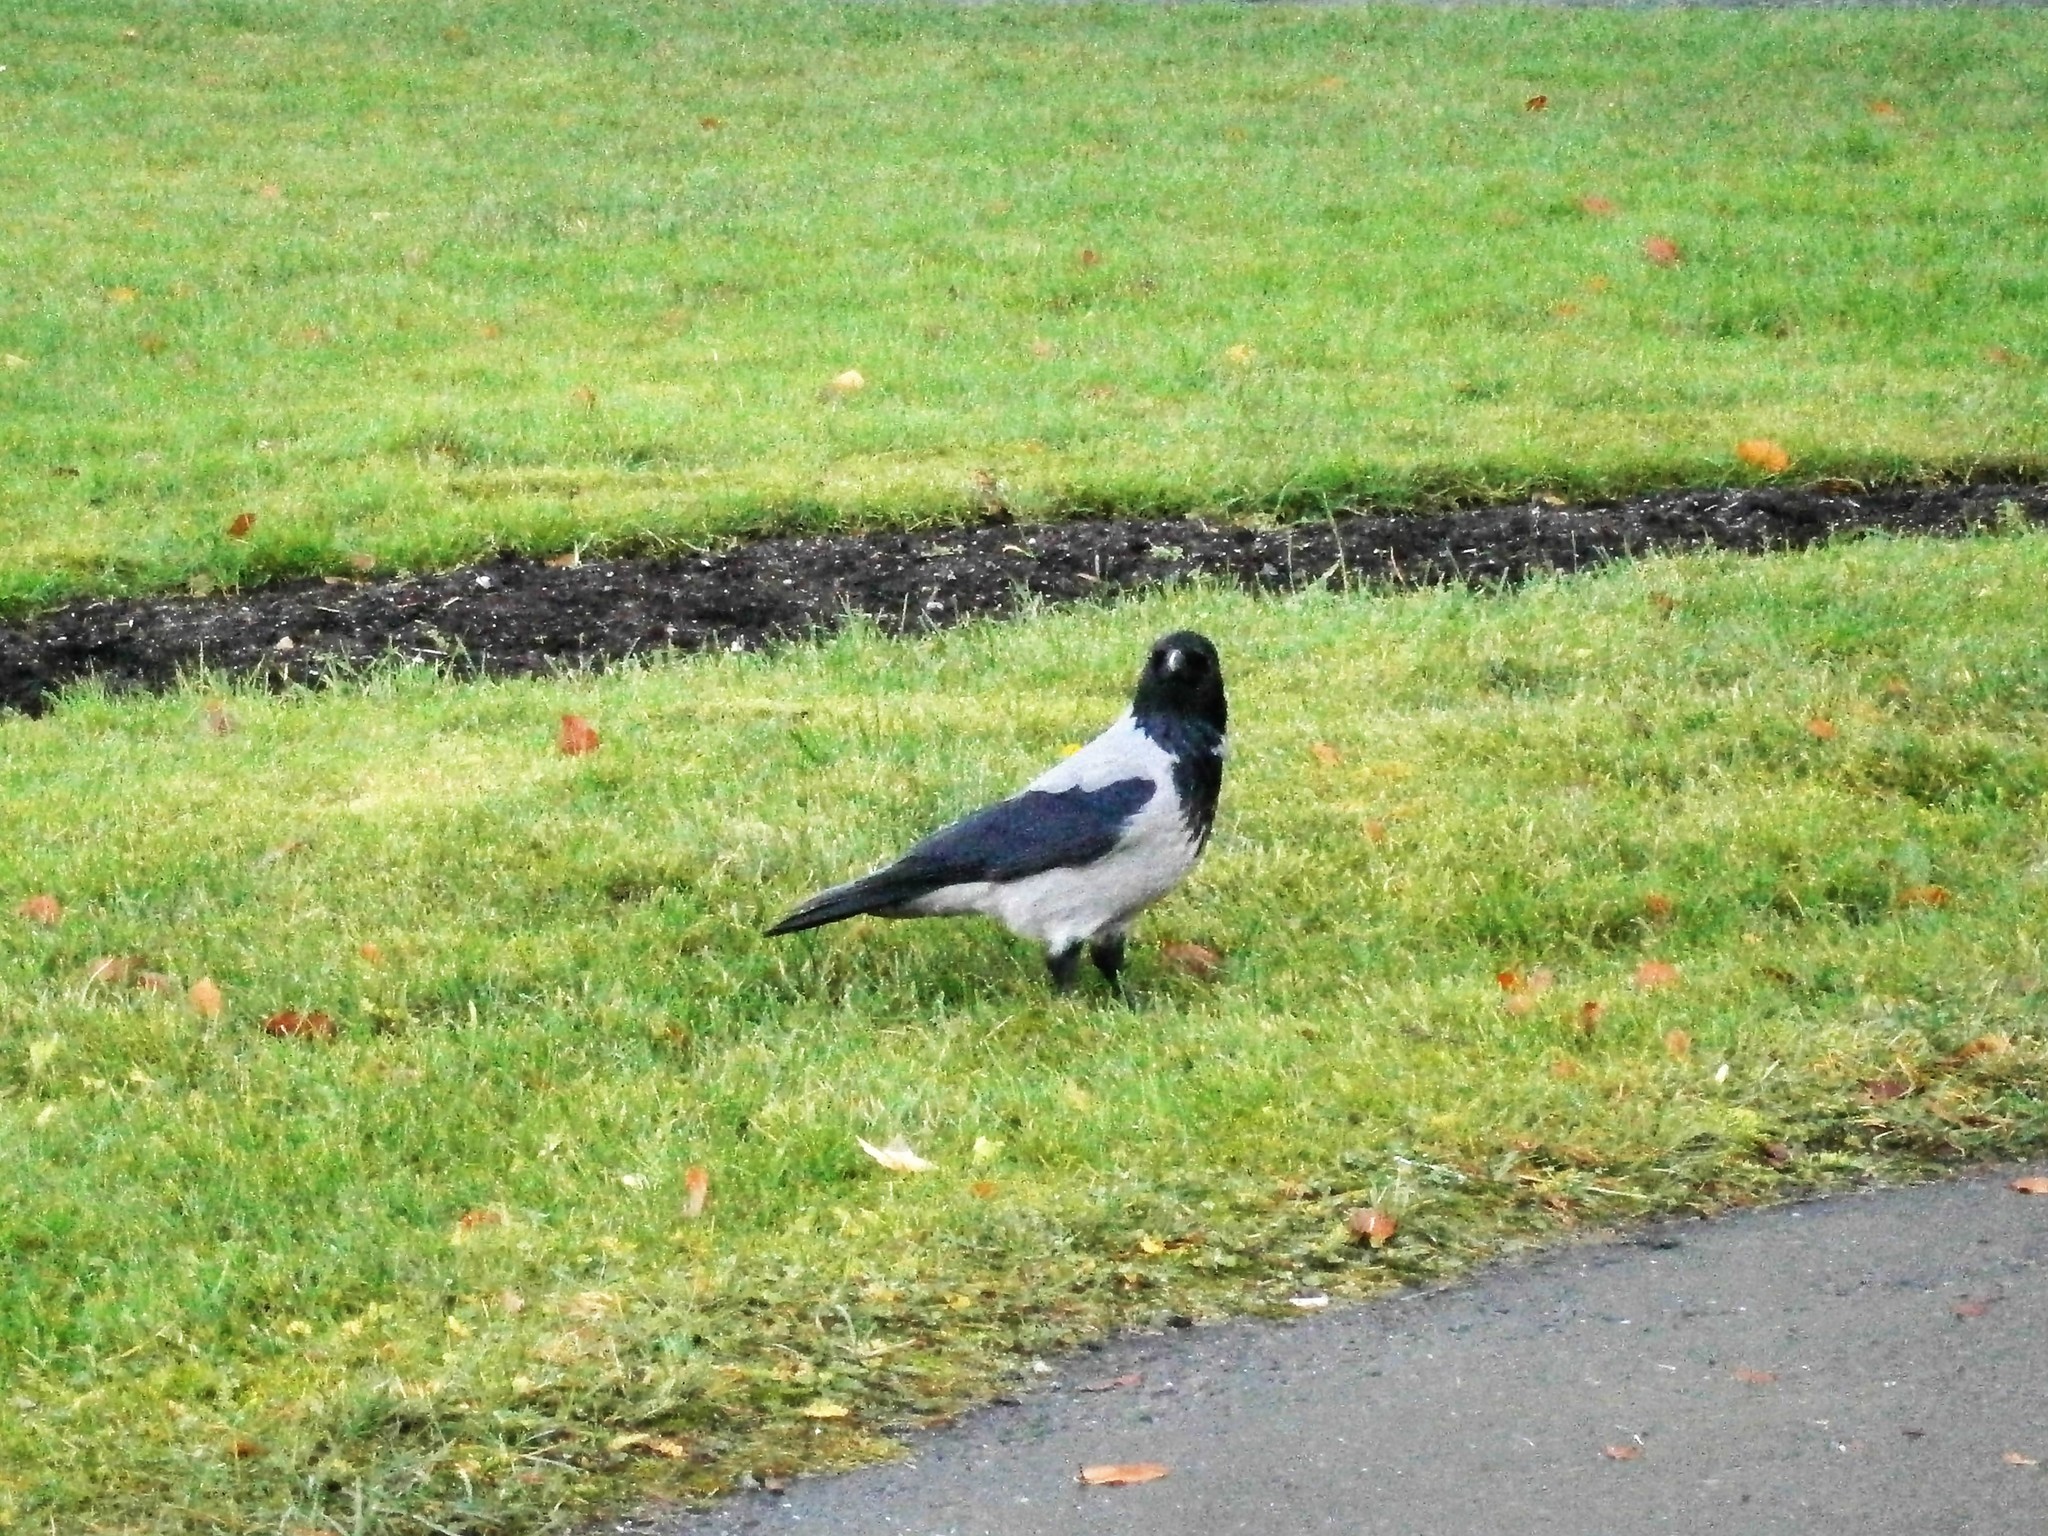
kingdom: Animalia
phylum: Chordata
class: Aves
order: Passeriformes
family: Corvidae
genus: Corvus
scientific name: Corvus cornix
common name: Hooded crow
